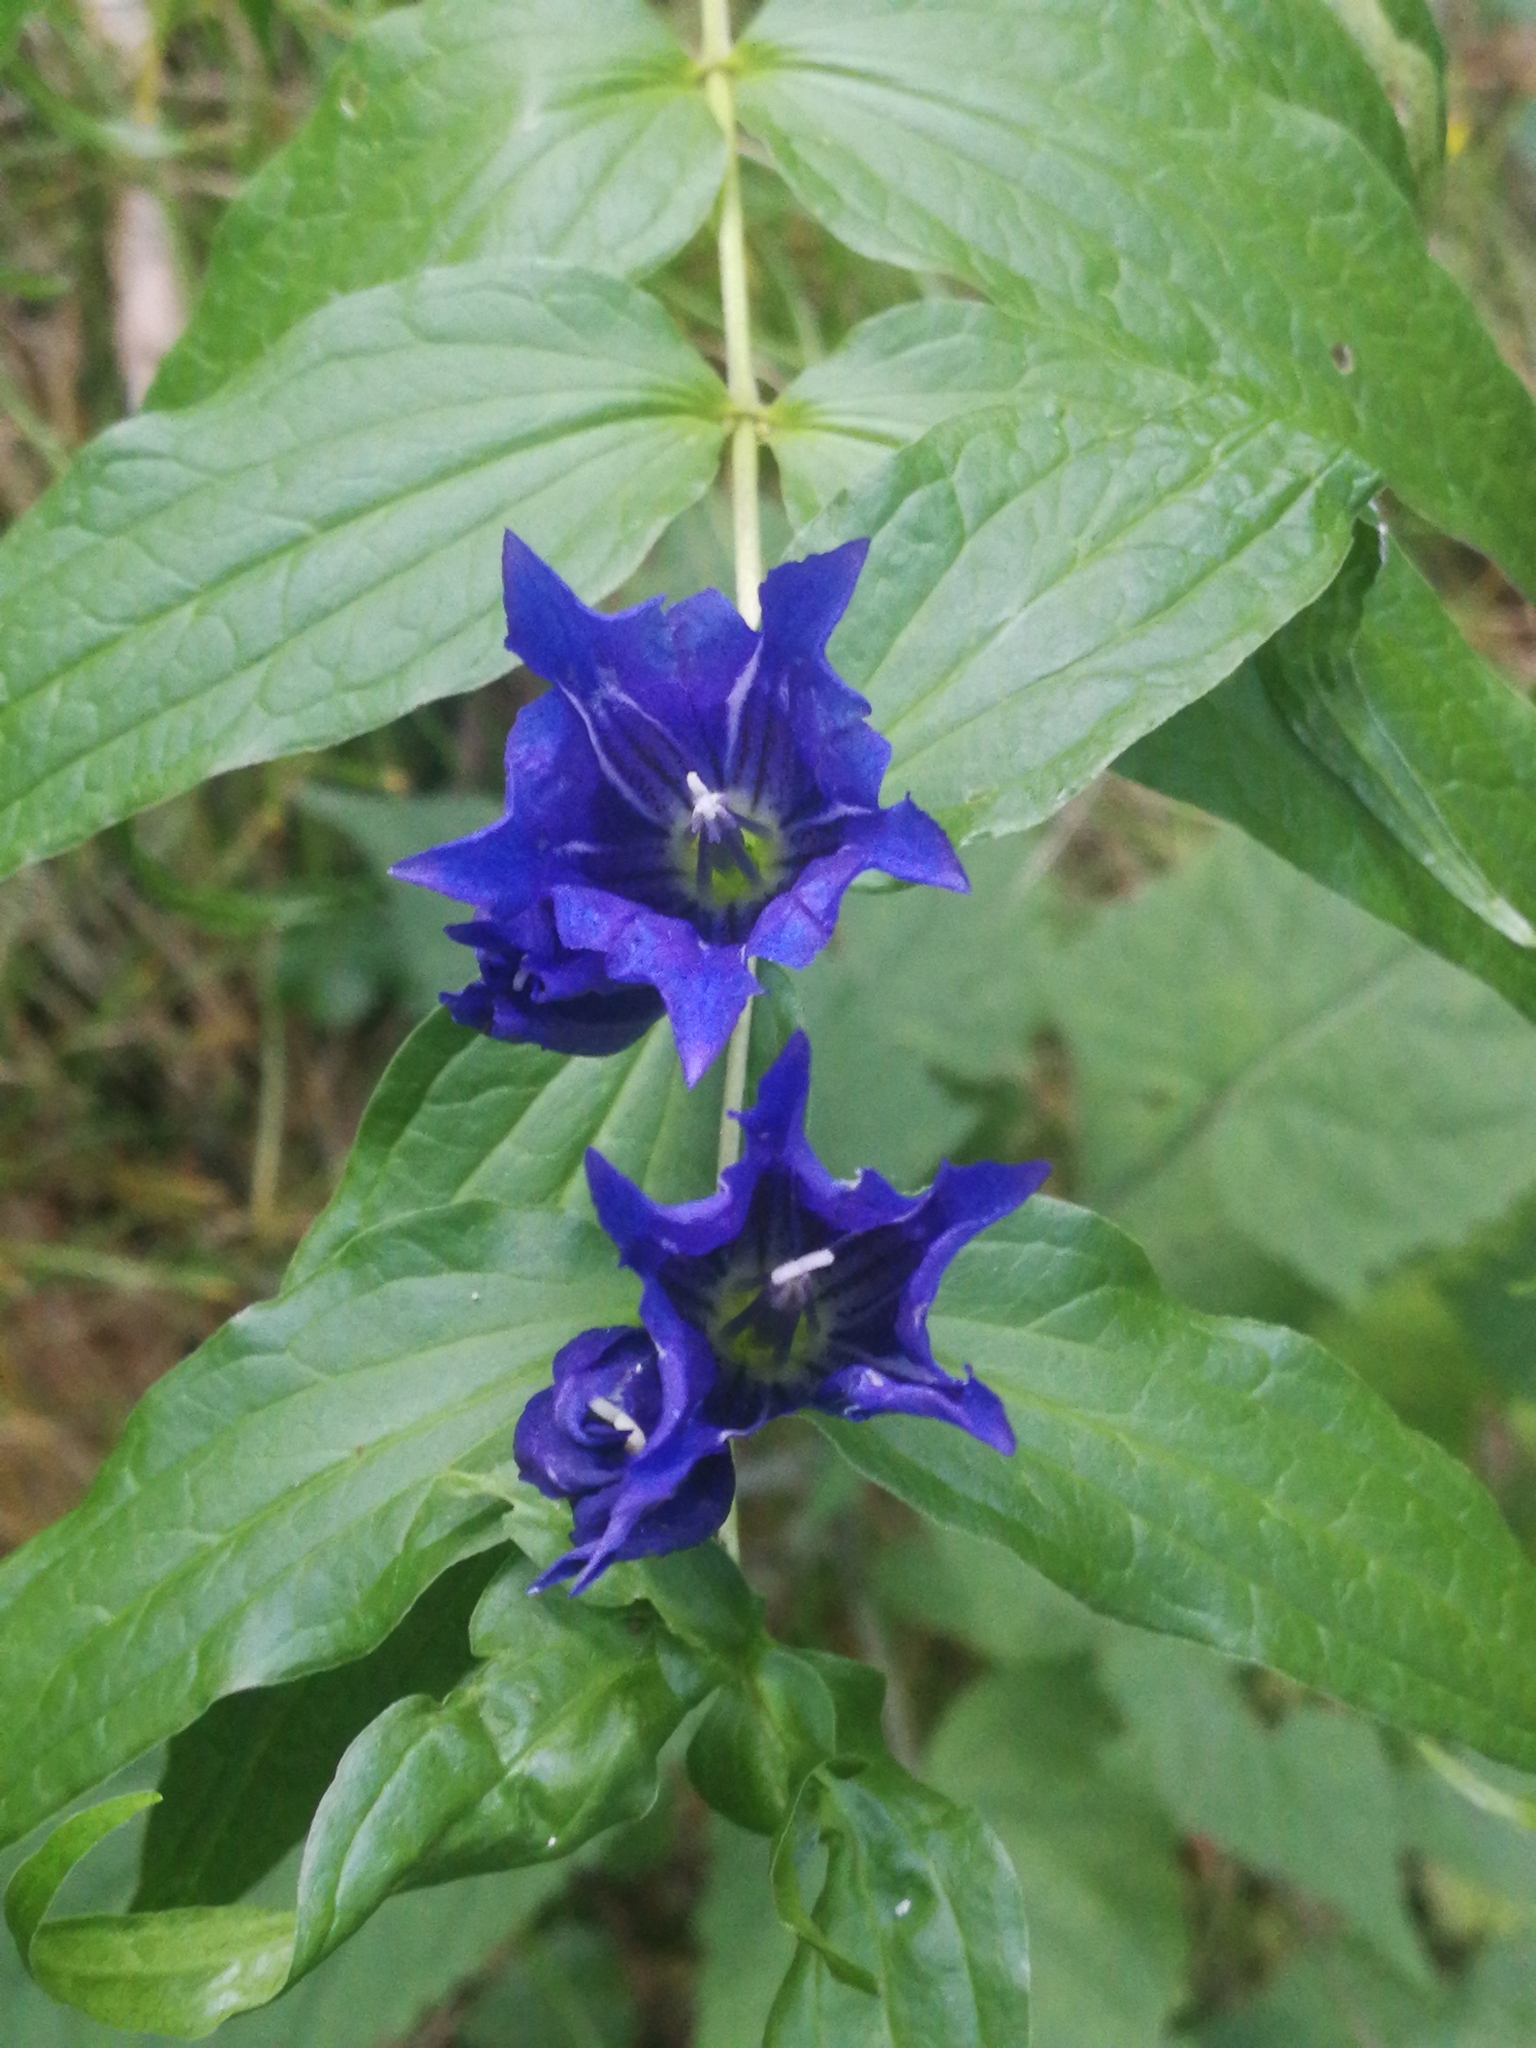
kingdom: Plantae
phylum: Tracheophyta
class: Magnoliopsida
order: Gentianales
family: Gentianaceae
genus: Gentiana
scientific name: Gentiana asclepiadea
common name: Willow gentian
